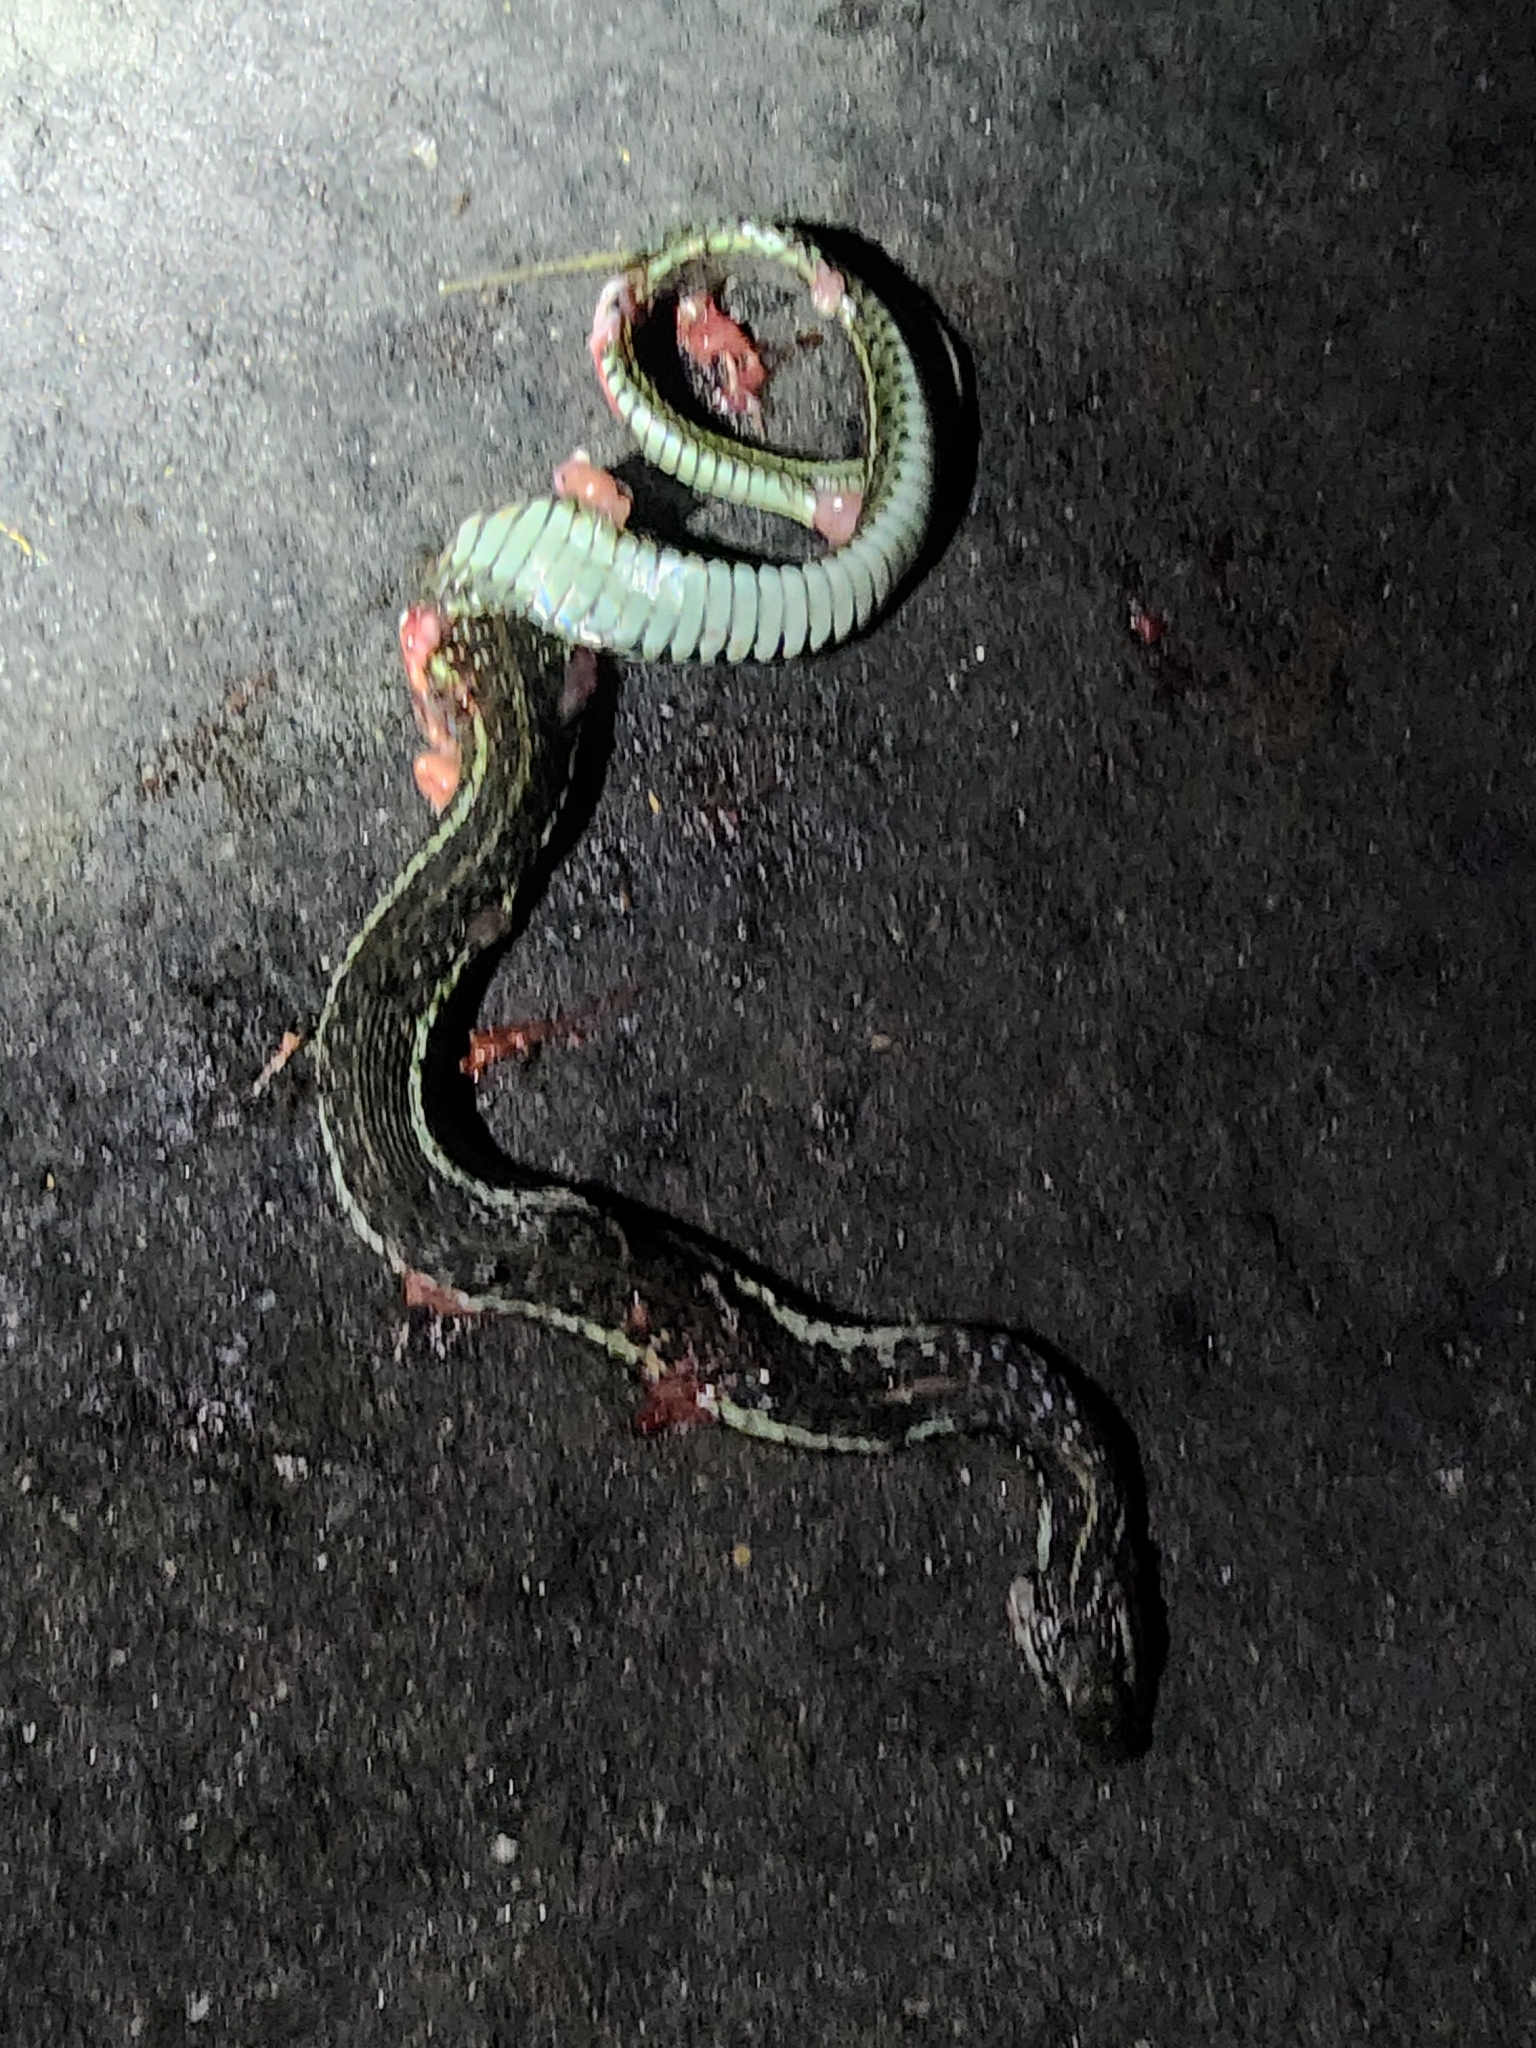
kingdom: Animalia
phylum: Chordata
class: Squamata
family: Colubridae
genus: Thamnophis
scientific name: Thamnophis sirtalis
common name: Common garter snake
